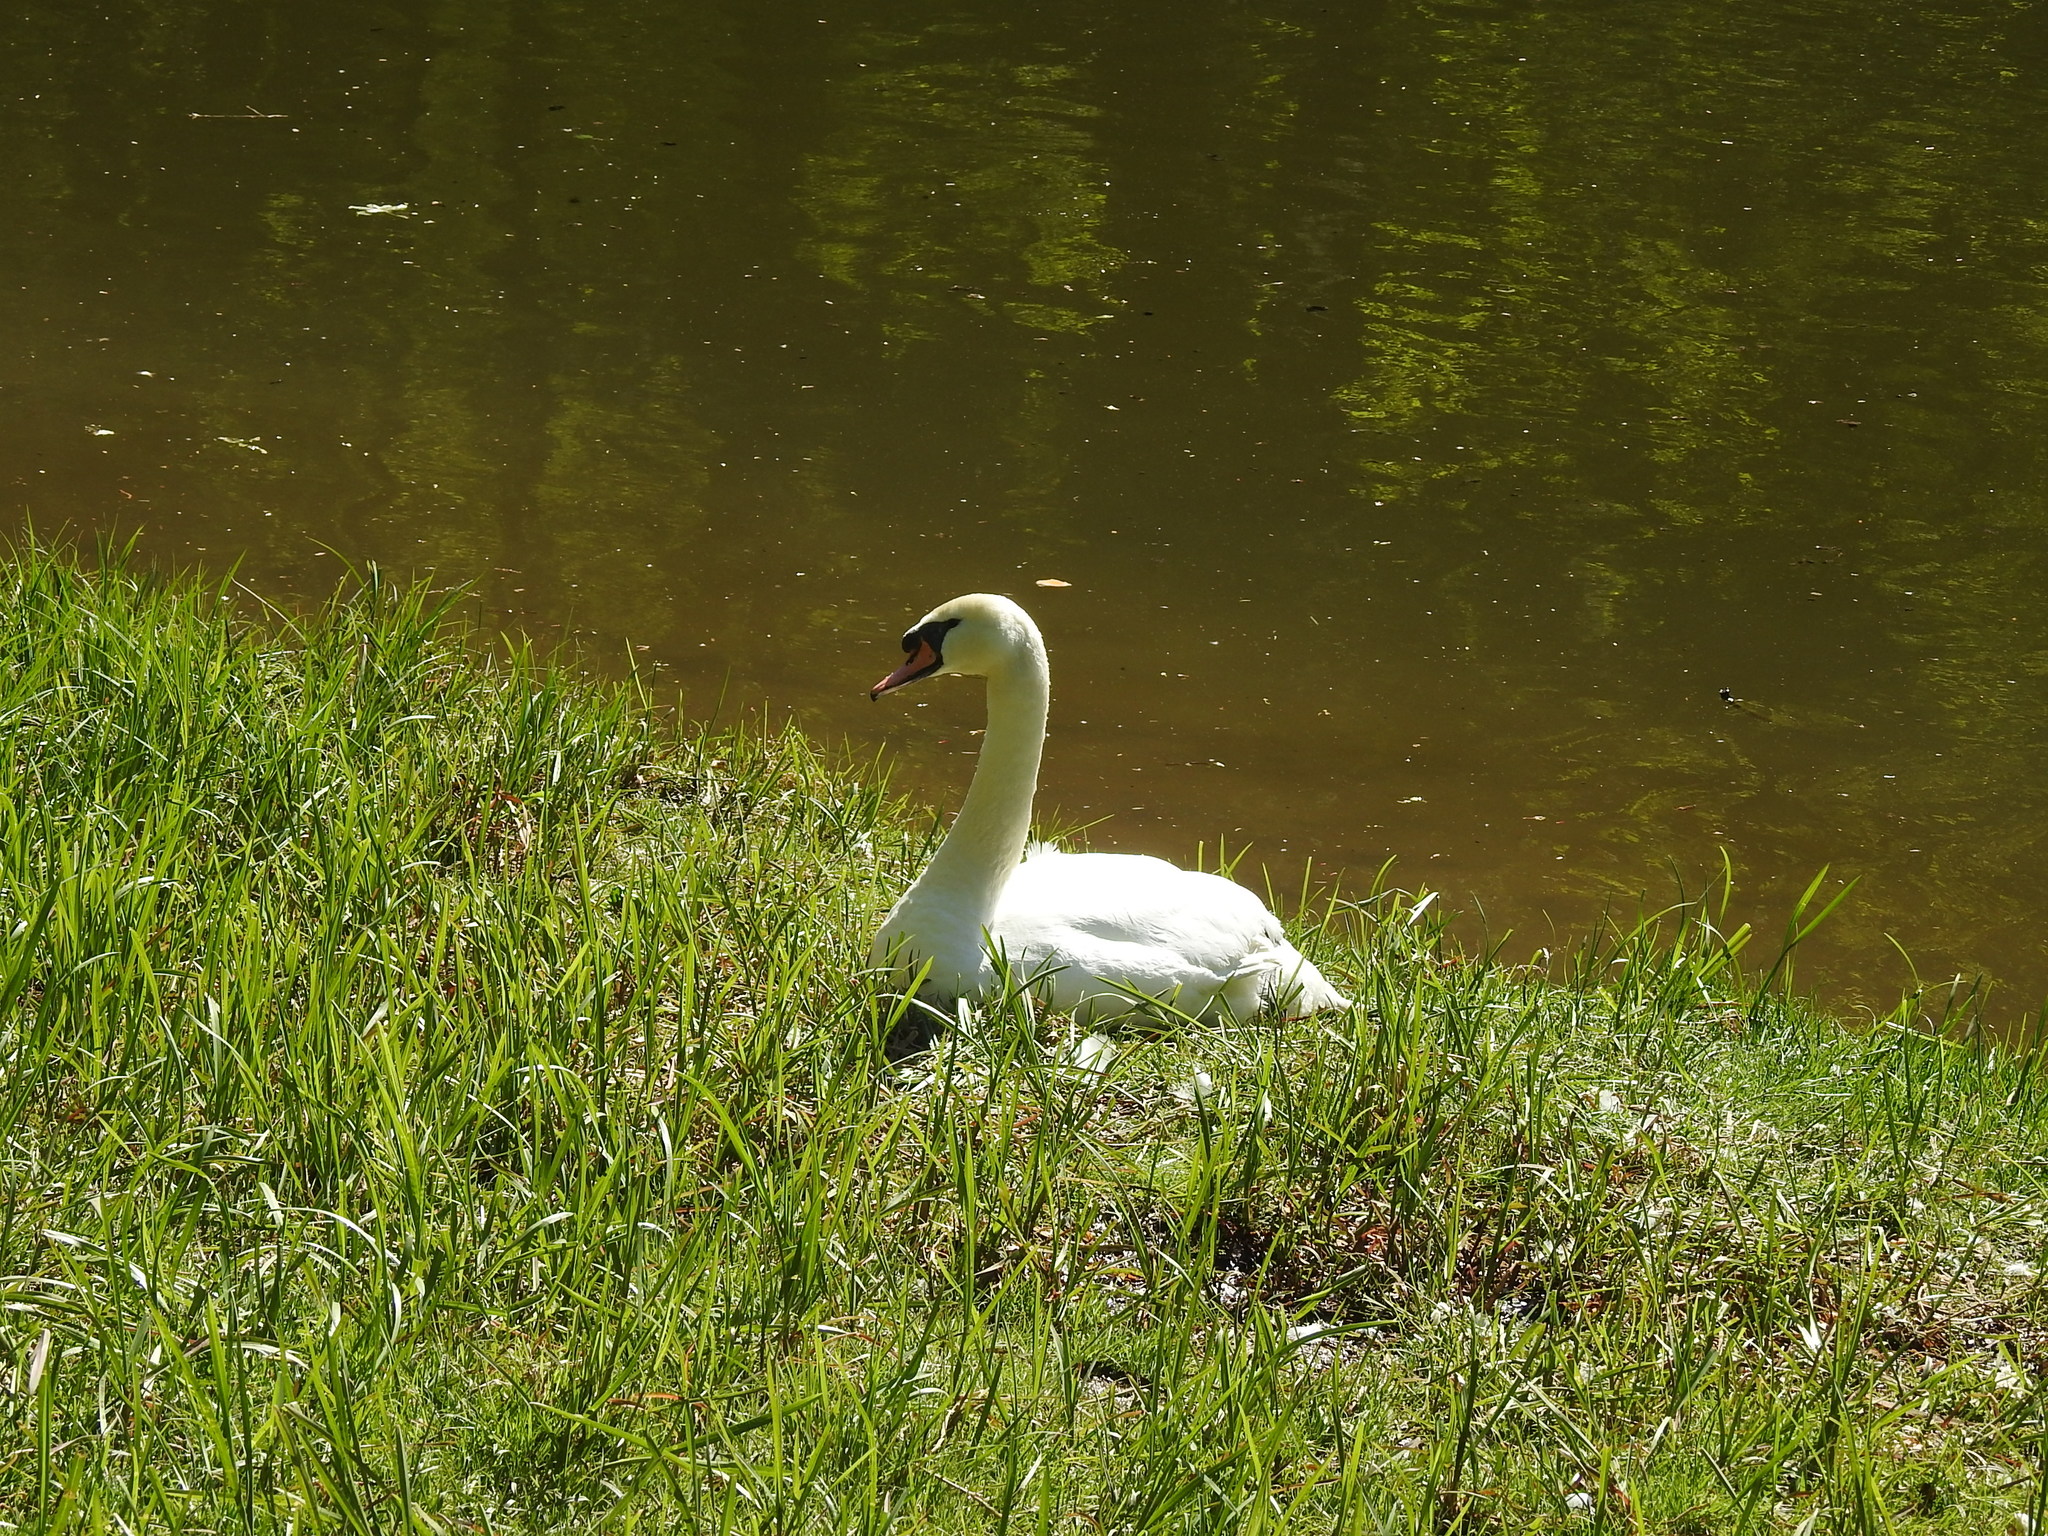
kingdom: Animalia
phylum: Chordata
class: Aves
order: Anseriformes
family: Anatidae
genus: Cygnus
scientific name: Cygnus olor
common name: Mute swan
